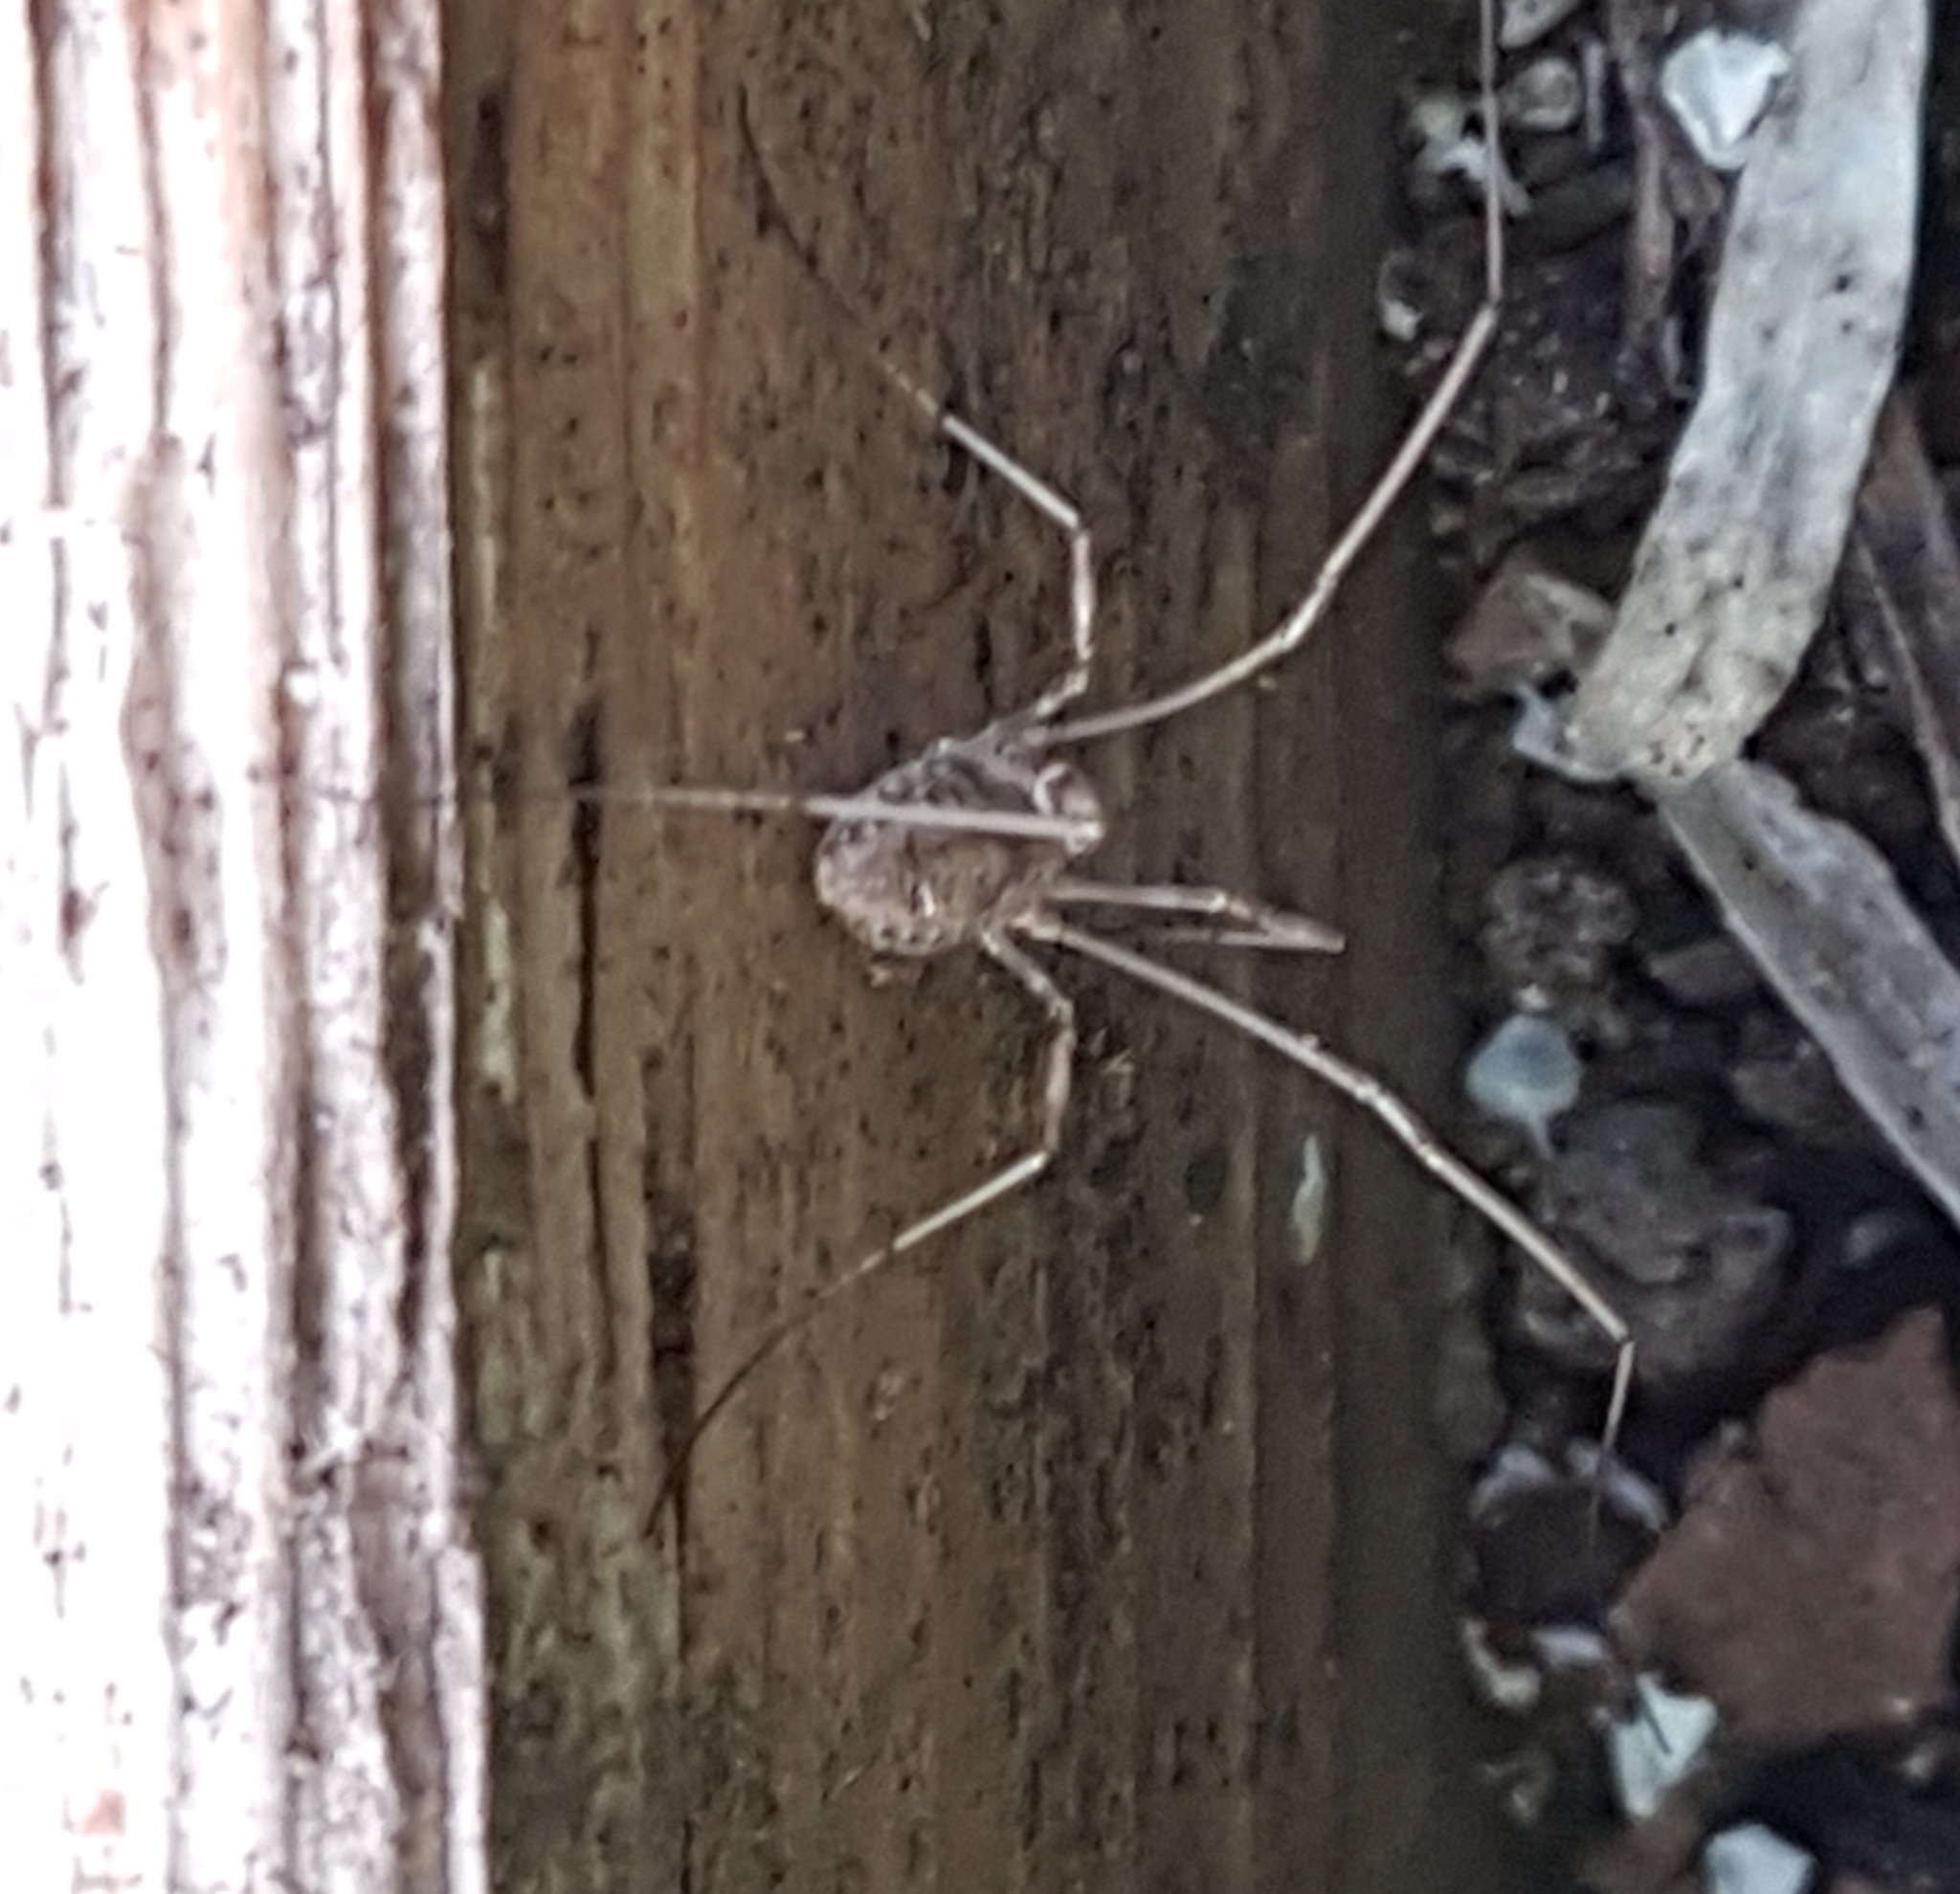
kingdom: Animalia
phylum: Arthropoda
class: Arachnida
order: Opiliones
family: Phalangiidae
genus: Phalangium
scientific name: Phalangium opilio
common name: Daddy longleg
